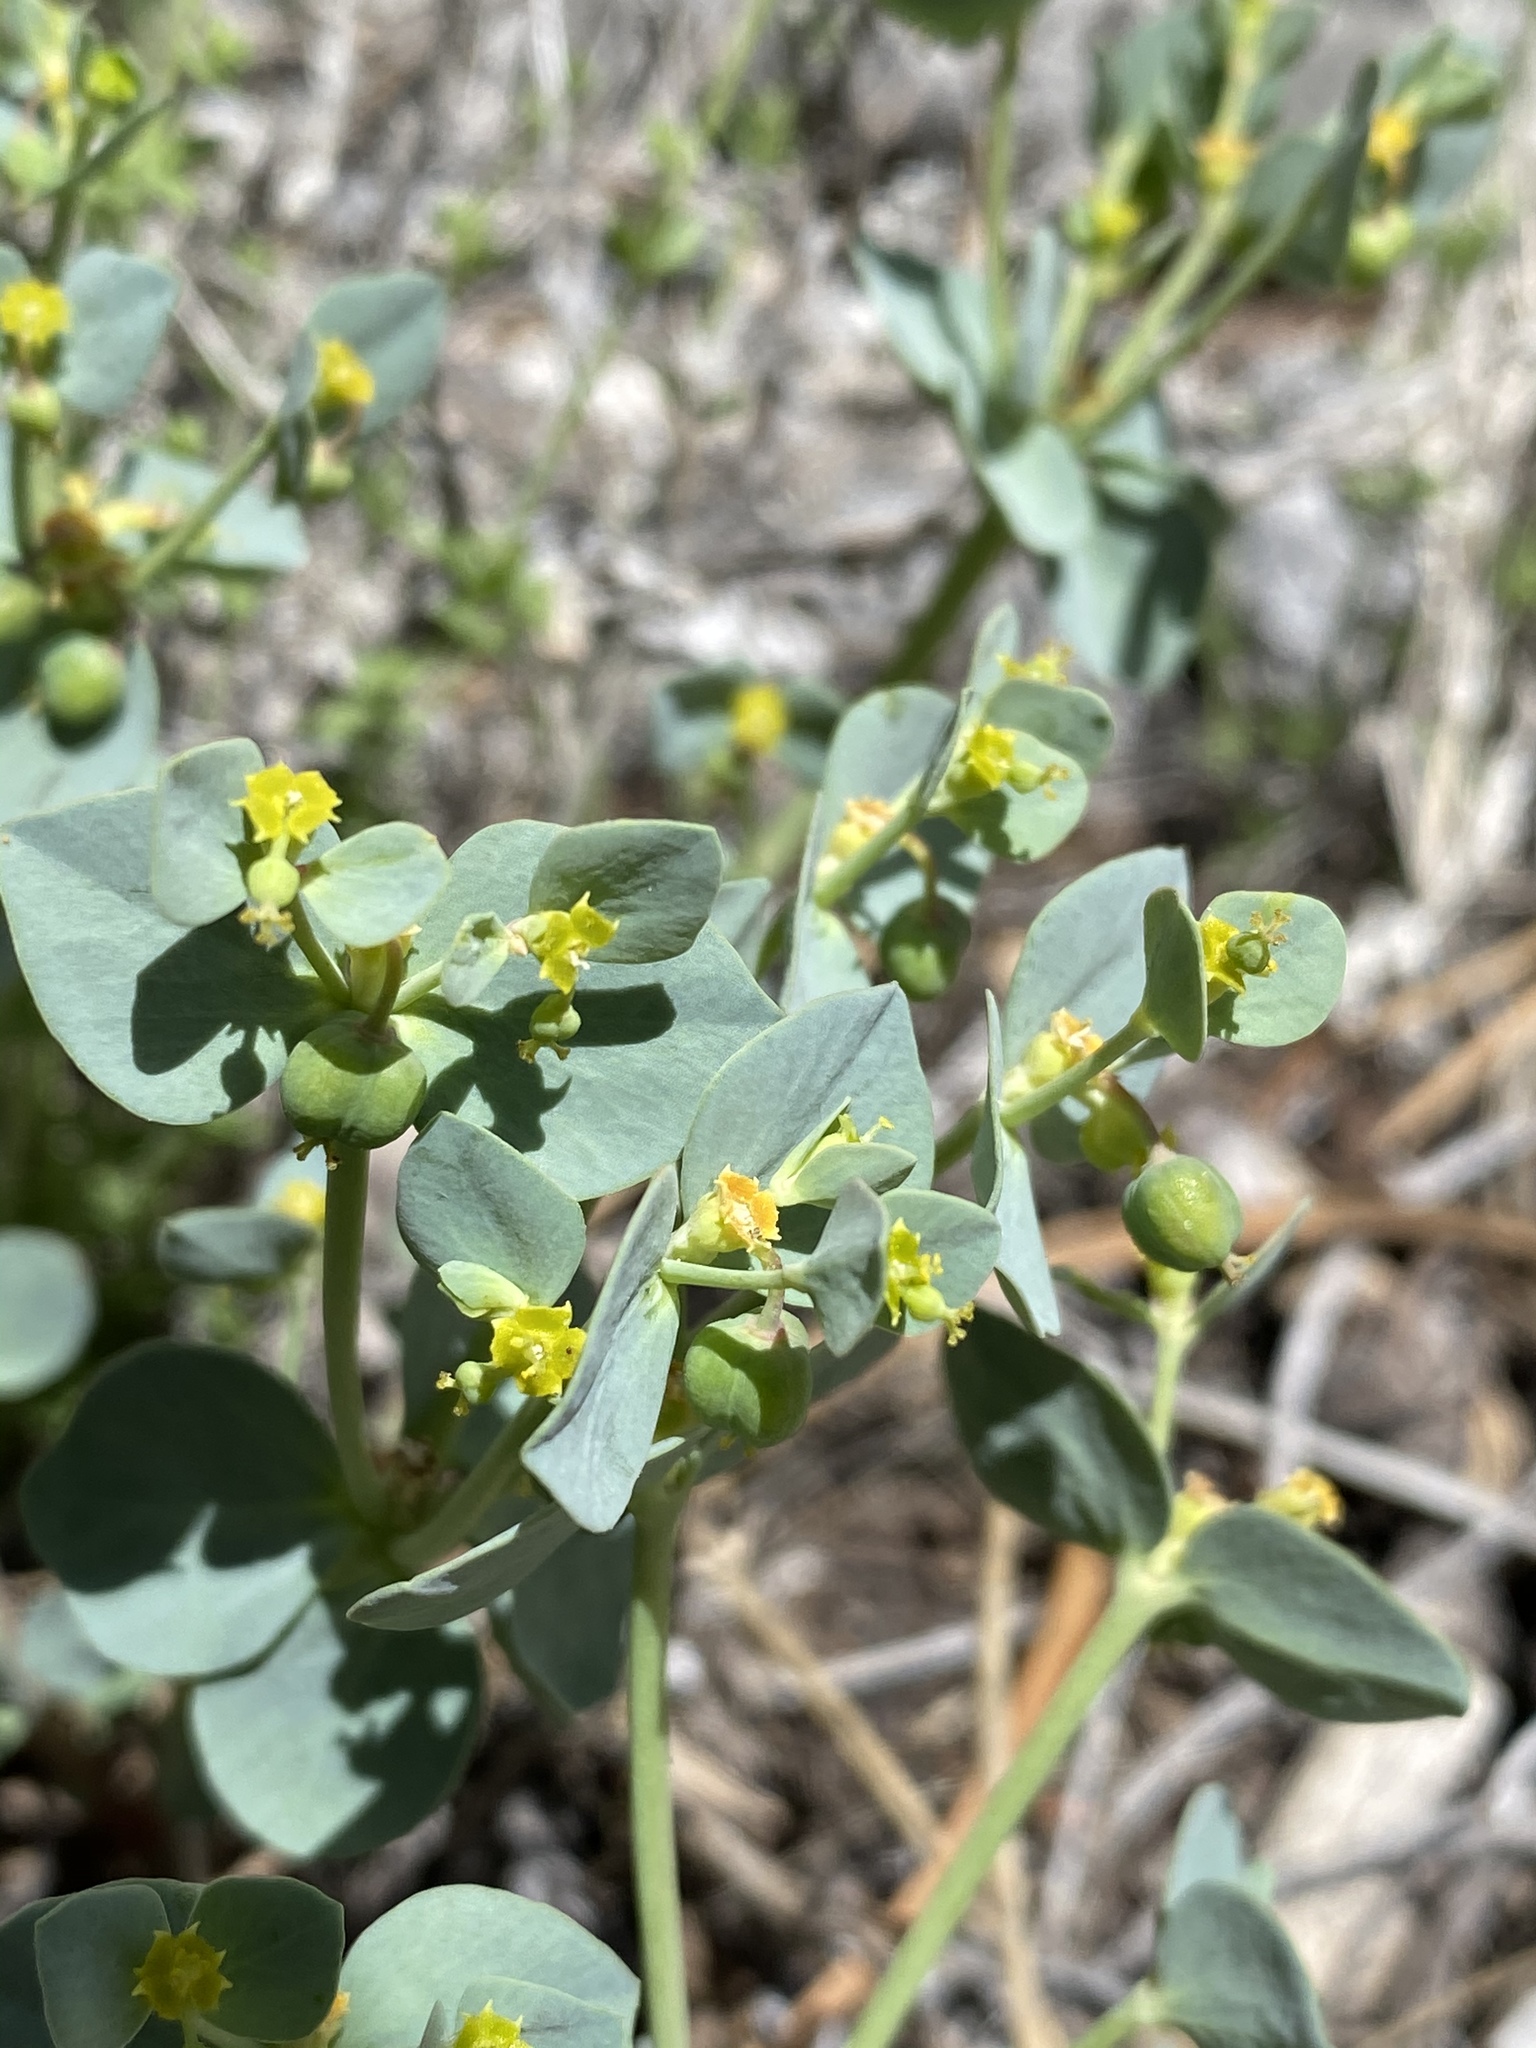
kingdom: Plantae
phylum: Tracheophyta
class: Magnoliopsida
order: Malpighiales
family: Euphorbiaceae
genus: Euphorbia
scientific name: Euphorbia brachycera
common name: Shorthorn spurge
